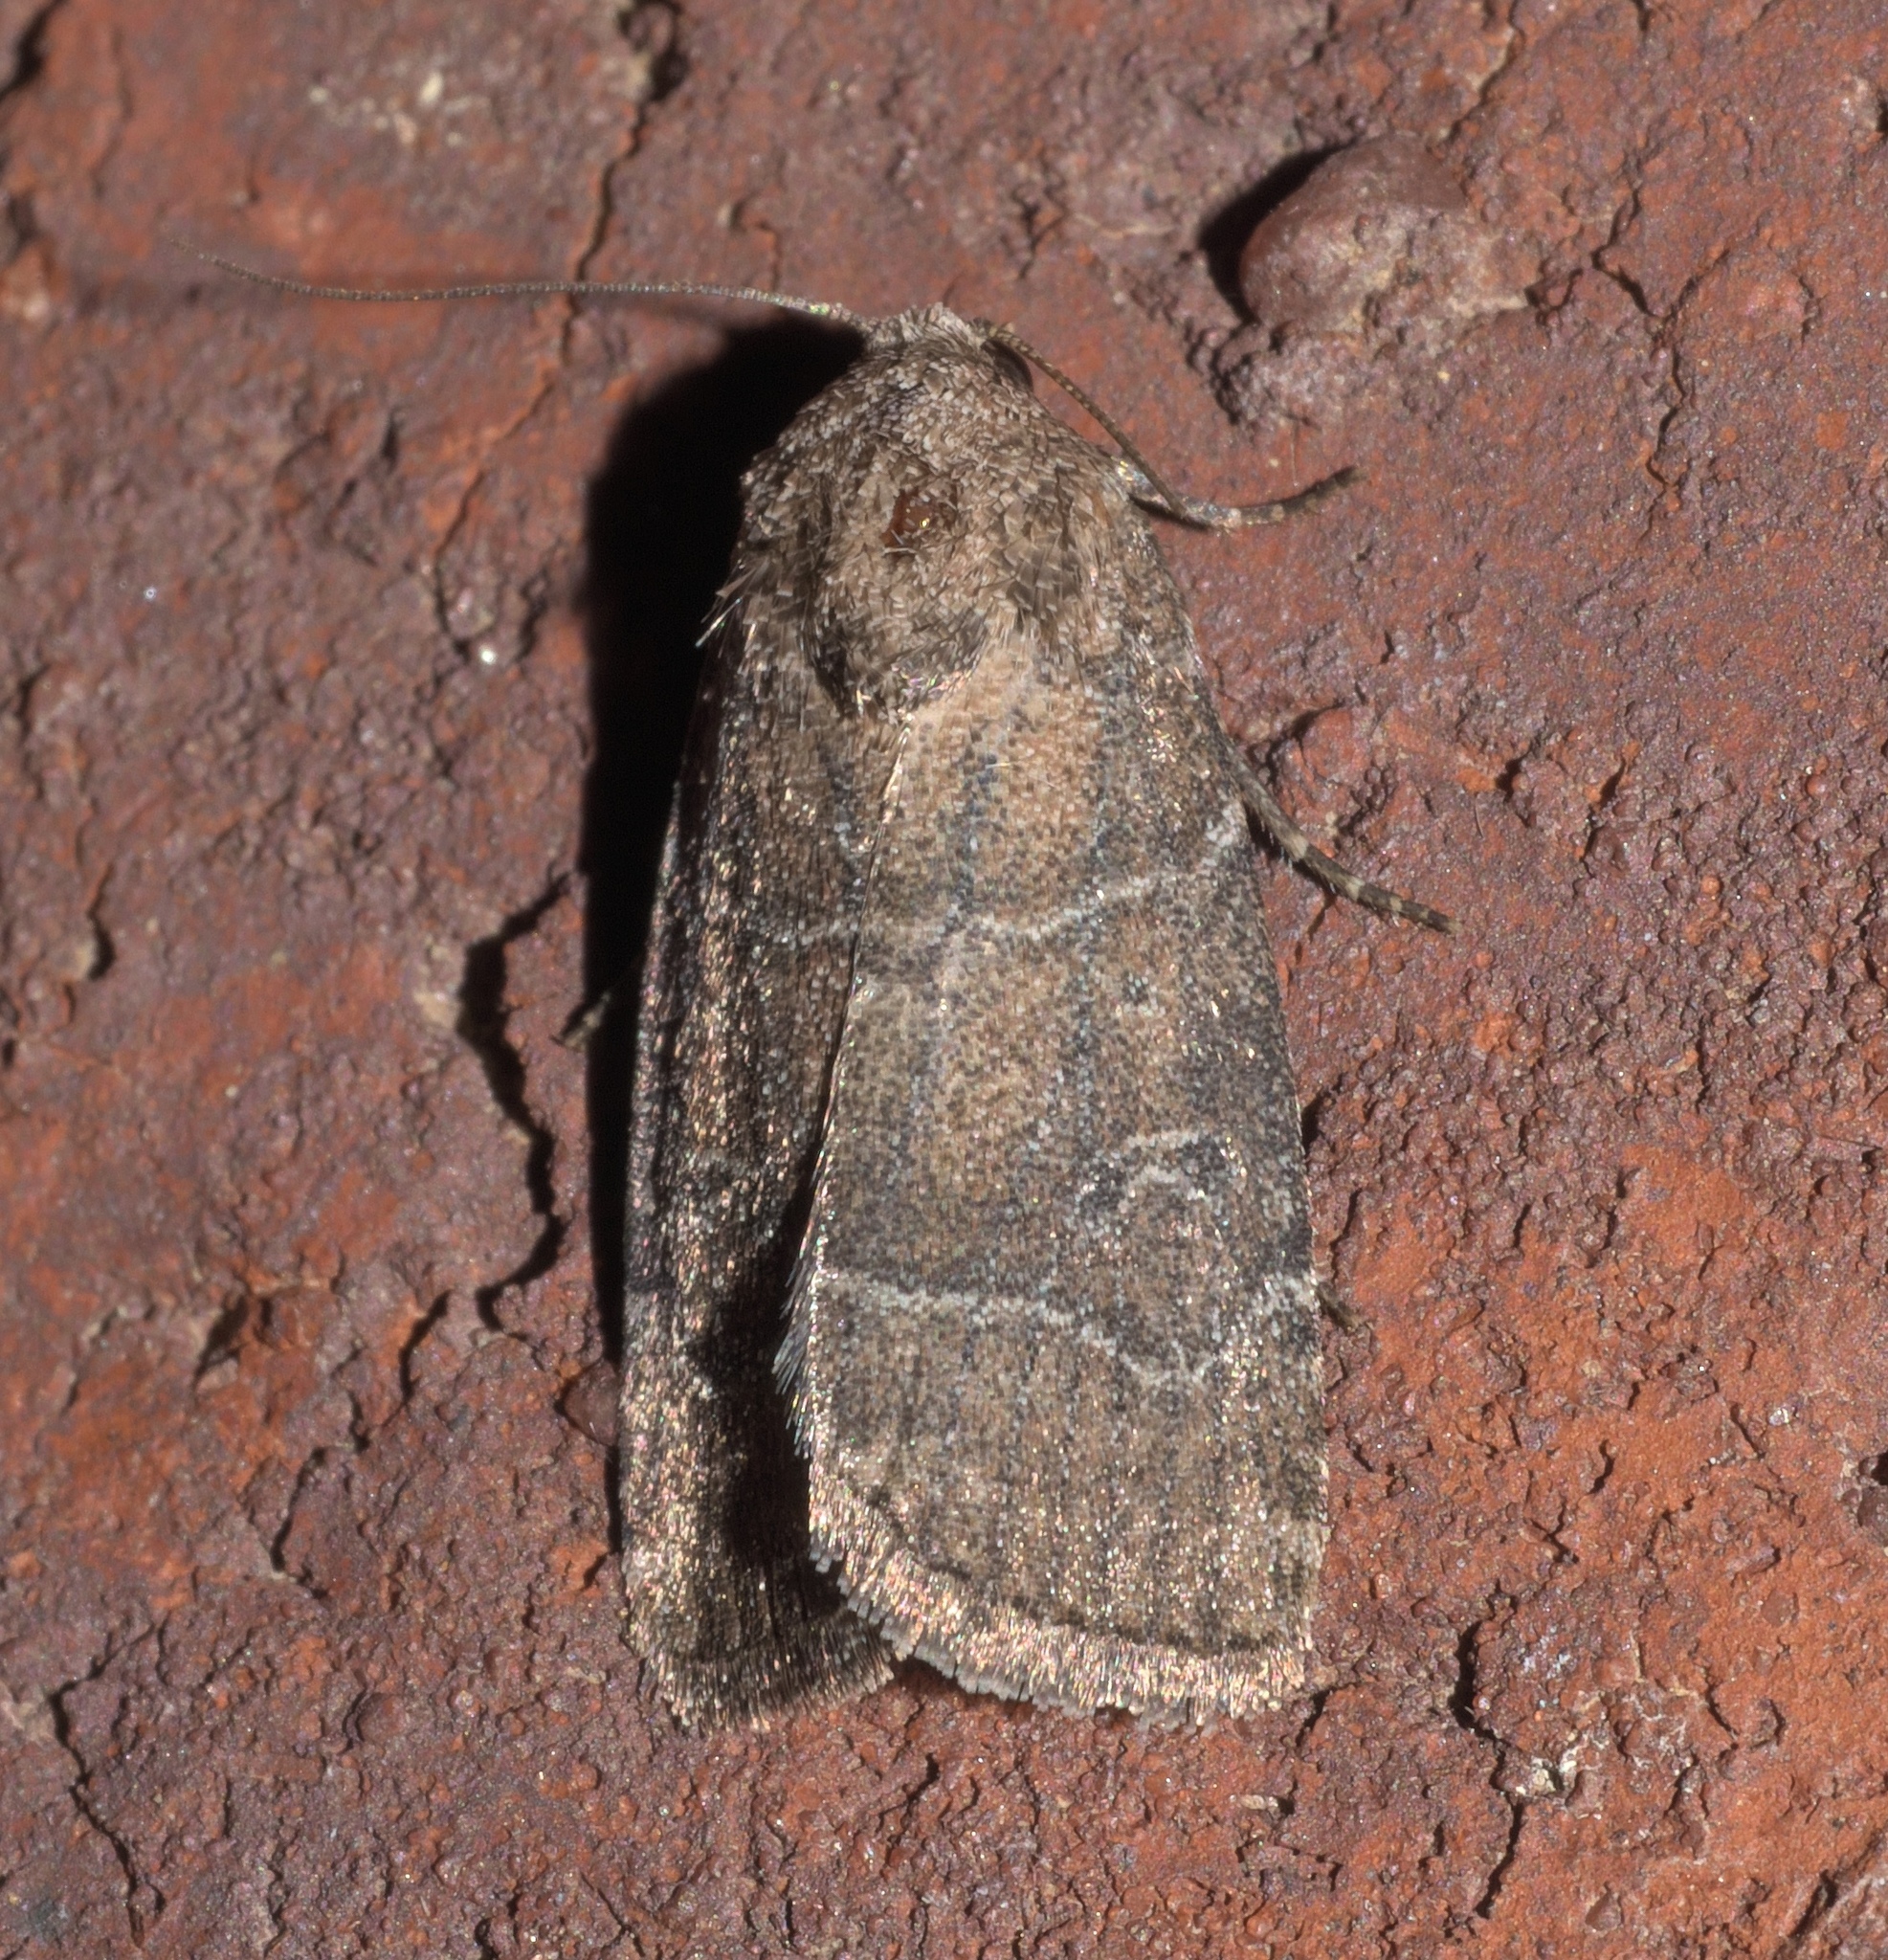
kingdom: Animalia
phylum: Arthropoda
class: Insecta
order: Lepidoptera
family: Noctuidae
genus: Elaphria
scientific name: Elaphria grata
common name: Grateful midget moth
